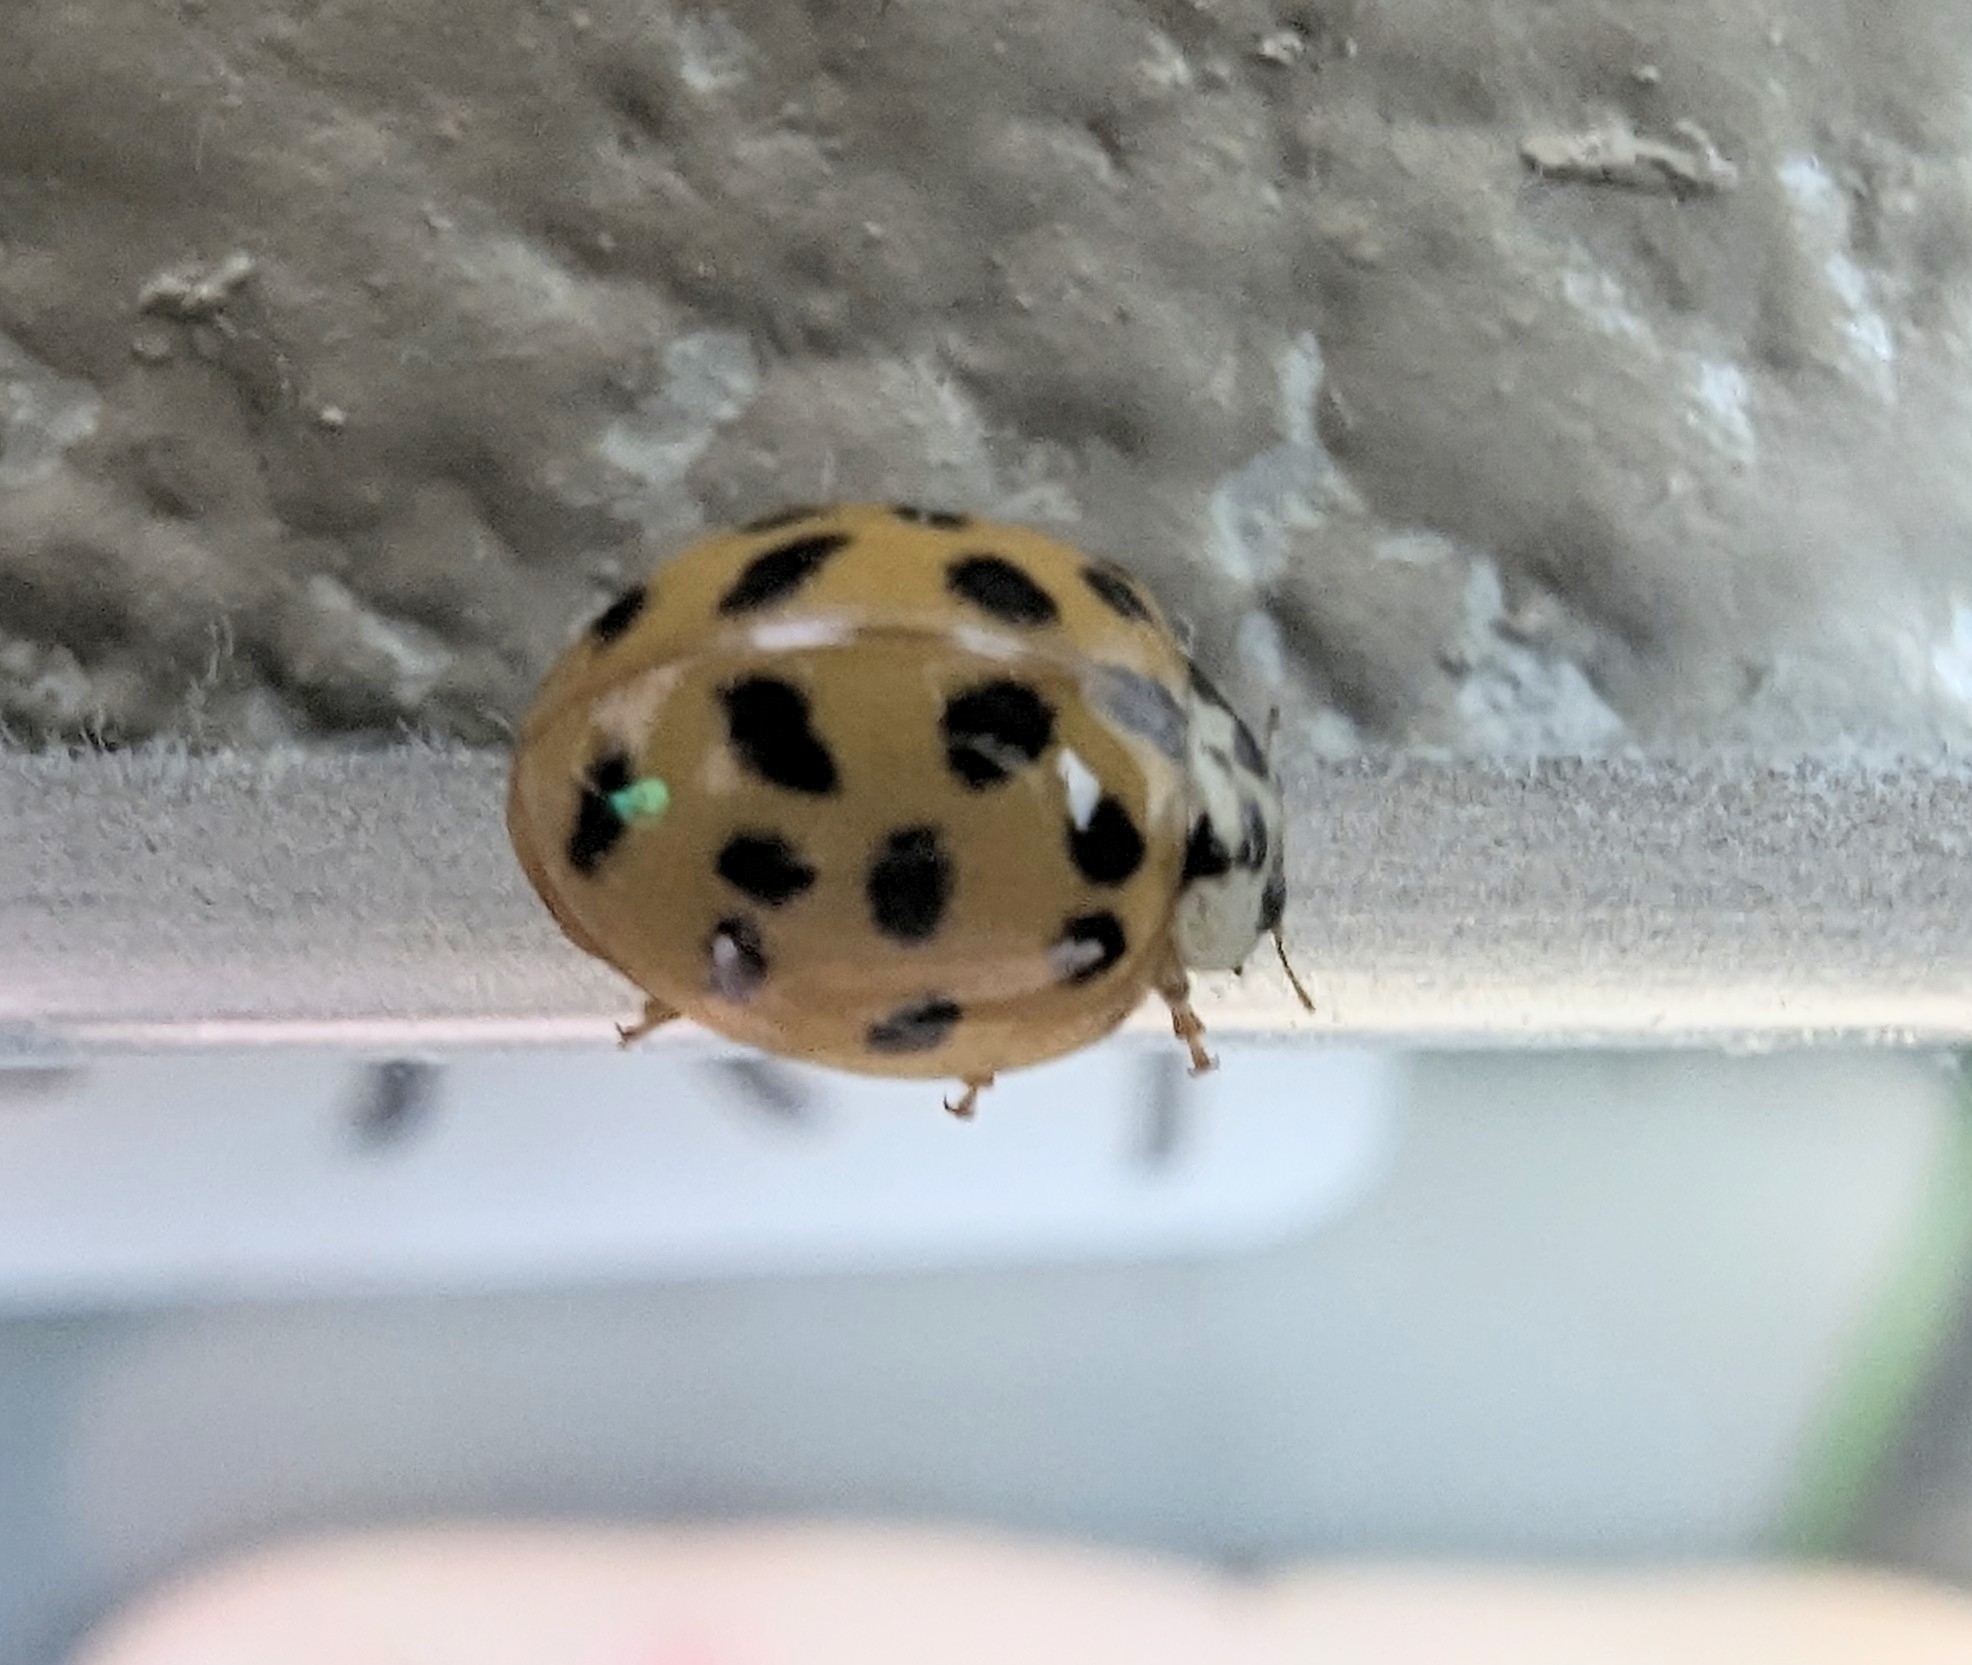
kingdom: Animalia
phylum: Arthropoda
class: Insecta
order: Coleoptera
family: Coccinellidae
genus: Harmonia
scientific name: Harmonia axyridis
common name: Harlequin ladybird
